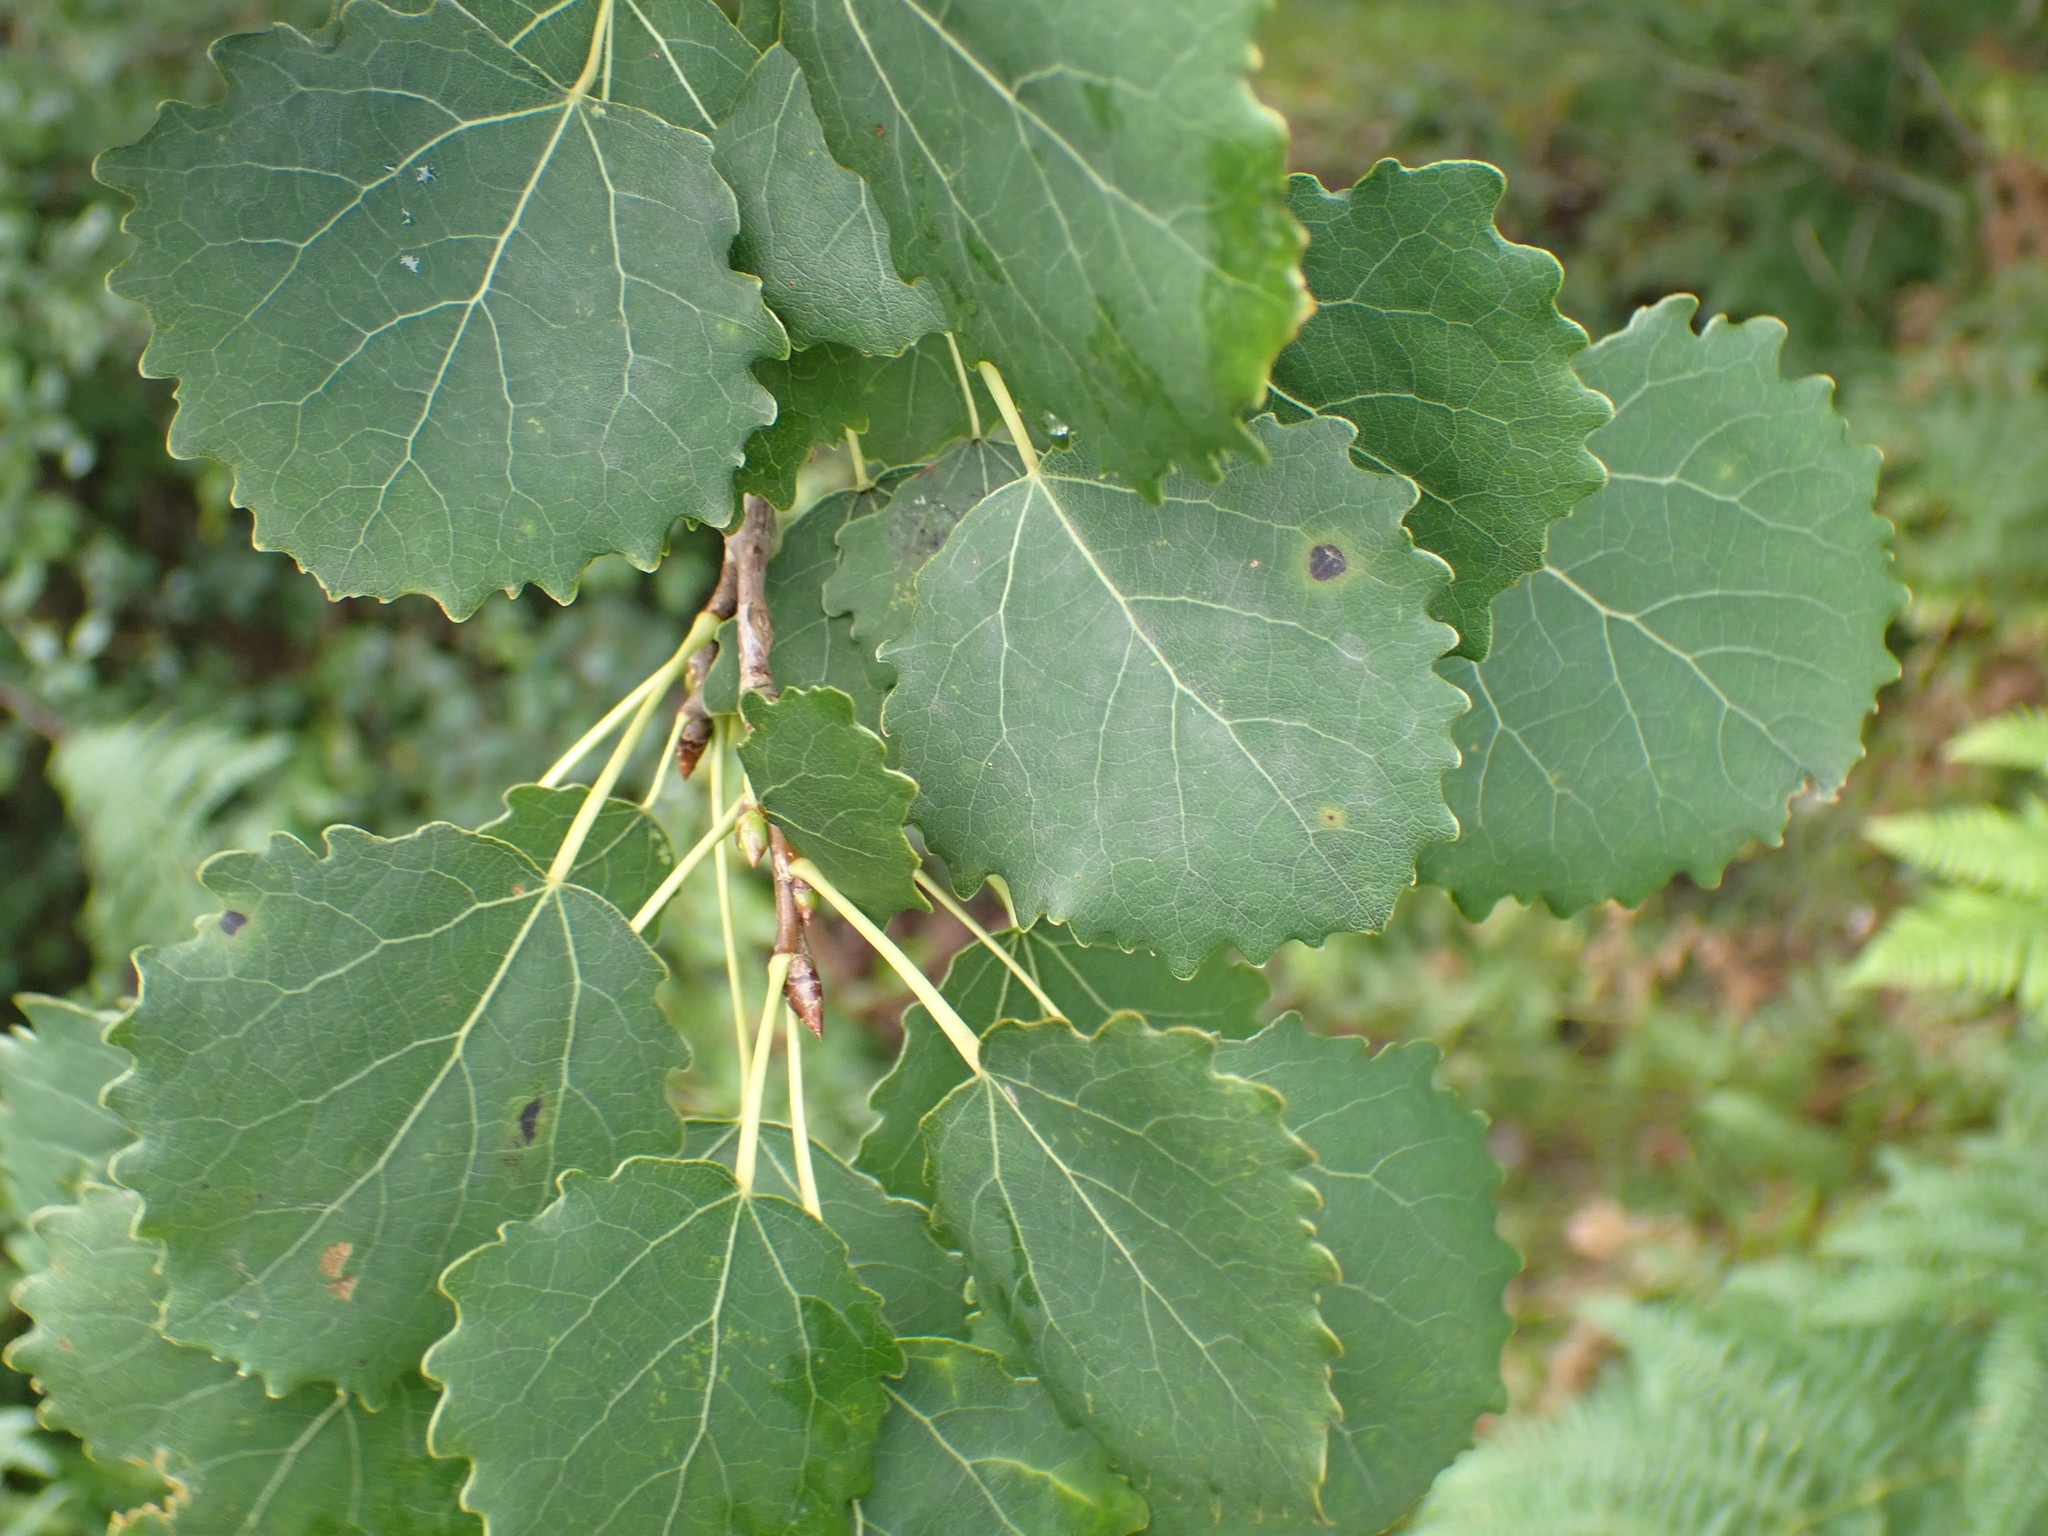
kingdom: Plantae
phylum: Tracheophyta
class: Magnoliopsida
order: Malpighiales
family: Salicaceae
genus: Populus
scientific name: Populus tremula
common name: European aspen
